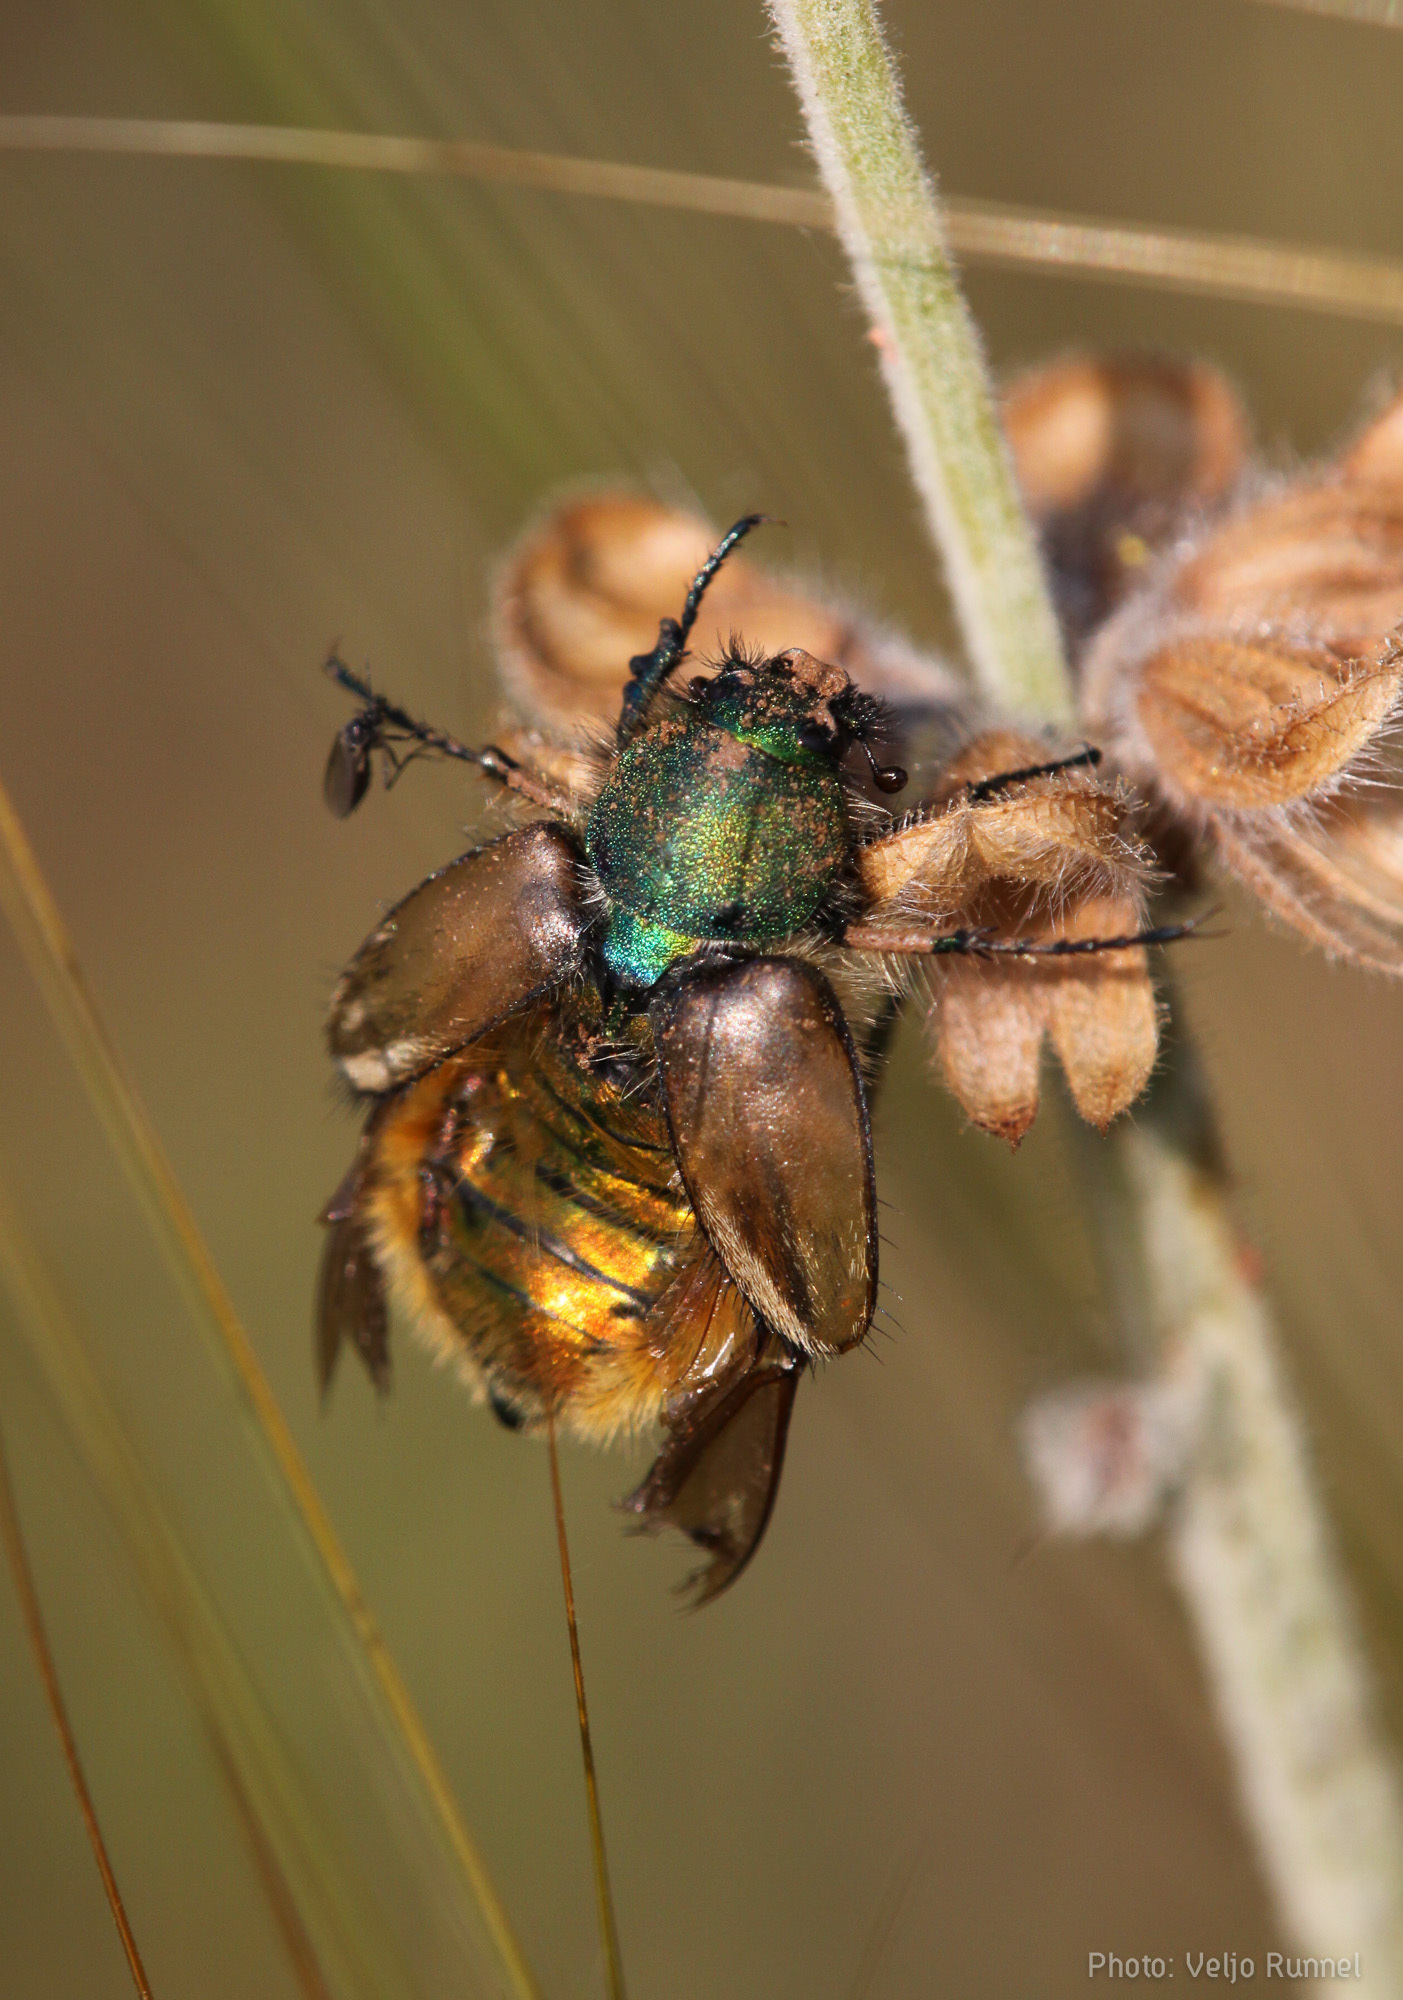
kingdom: Animalia
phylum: Arthropoda
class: Insecta
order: Coleoptera
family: Glaphyridae
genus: Eulasia
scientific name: Eulasia pareyssei
